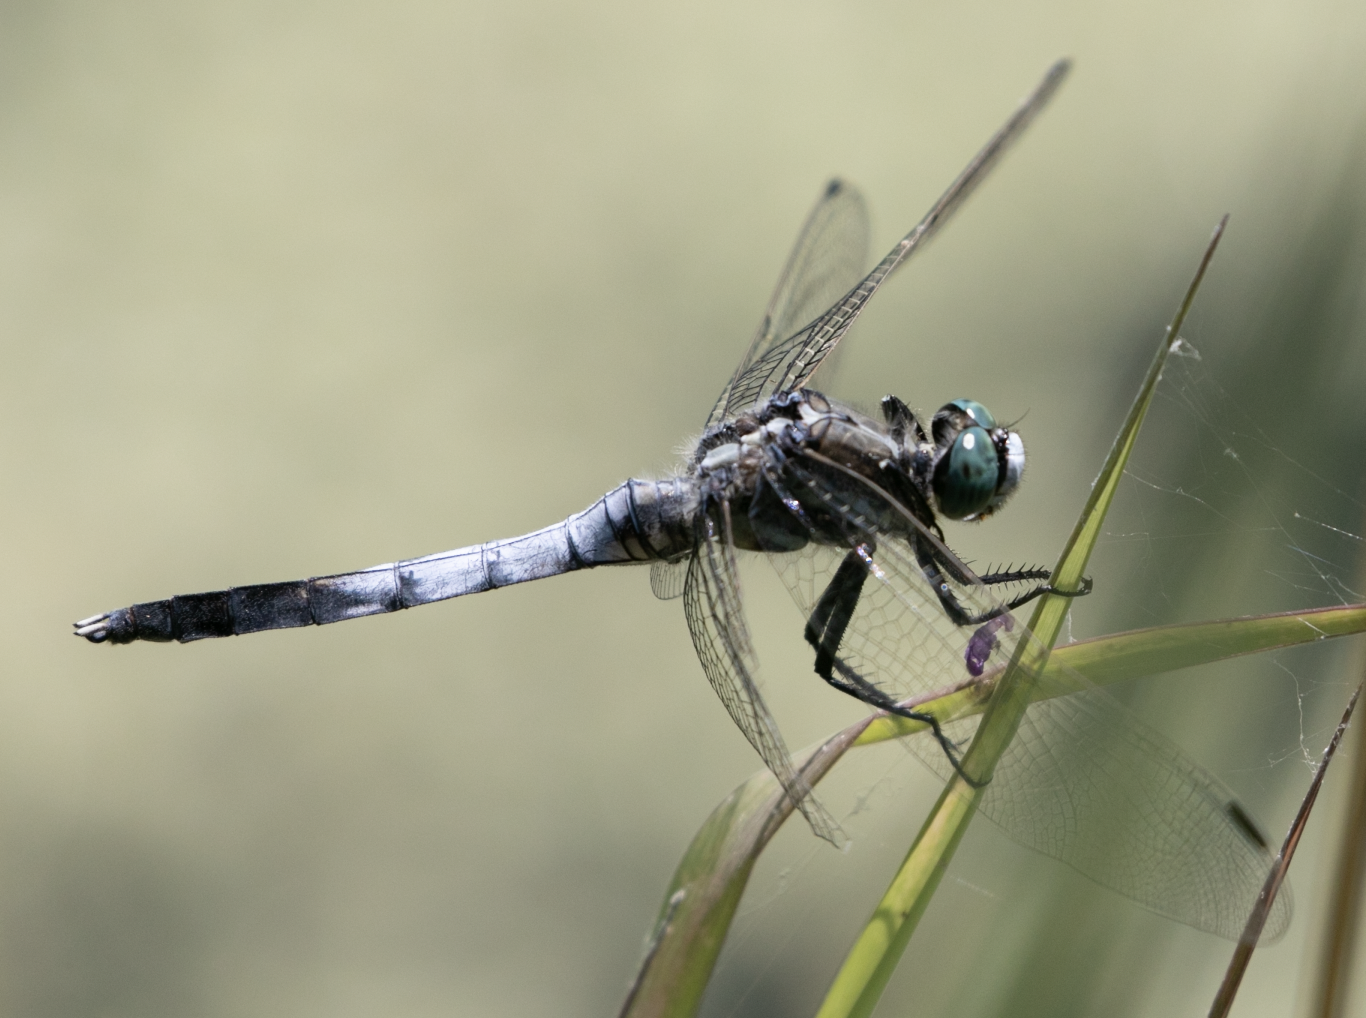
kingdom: Animalia
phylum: Arthropoda
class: Insecta
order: Odonata
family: Libellulidae
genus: Orthetrum
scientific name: Orthetrum albistylum
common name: White-tailed skimmer
